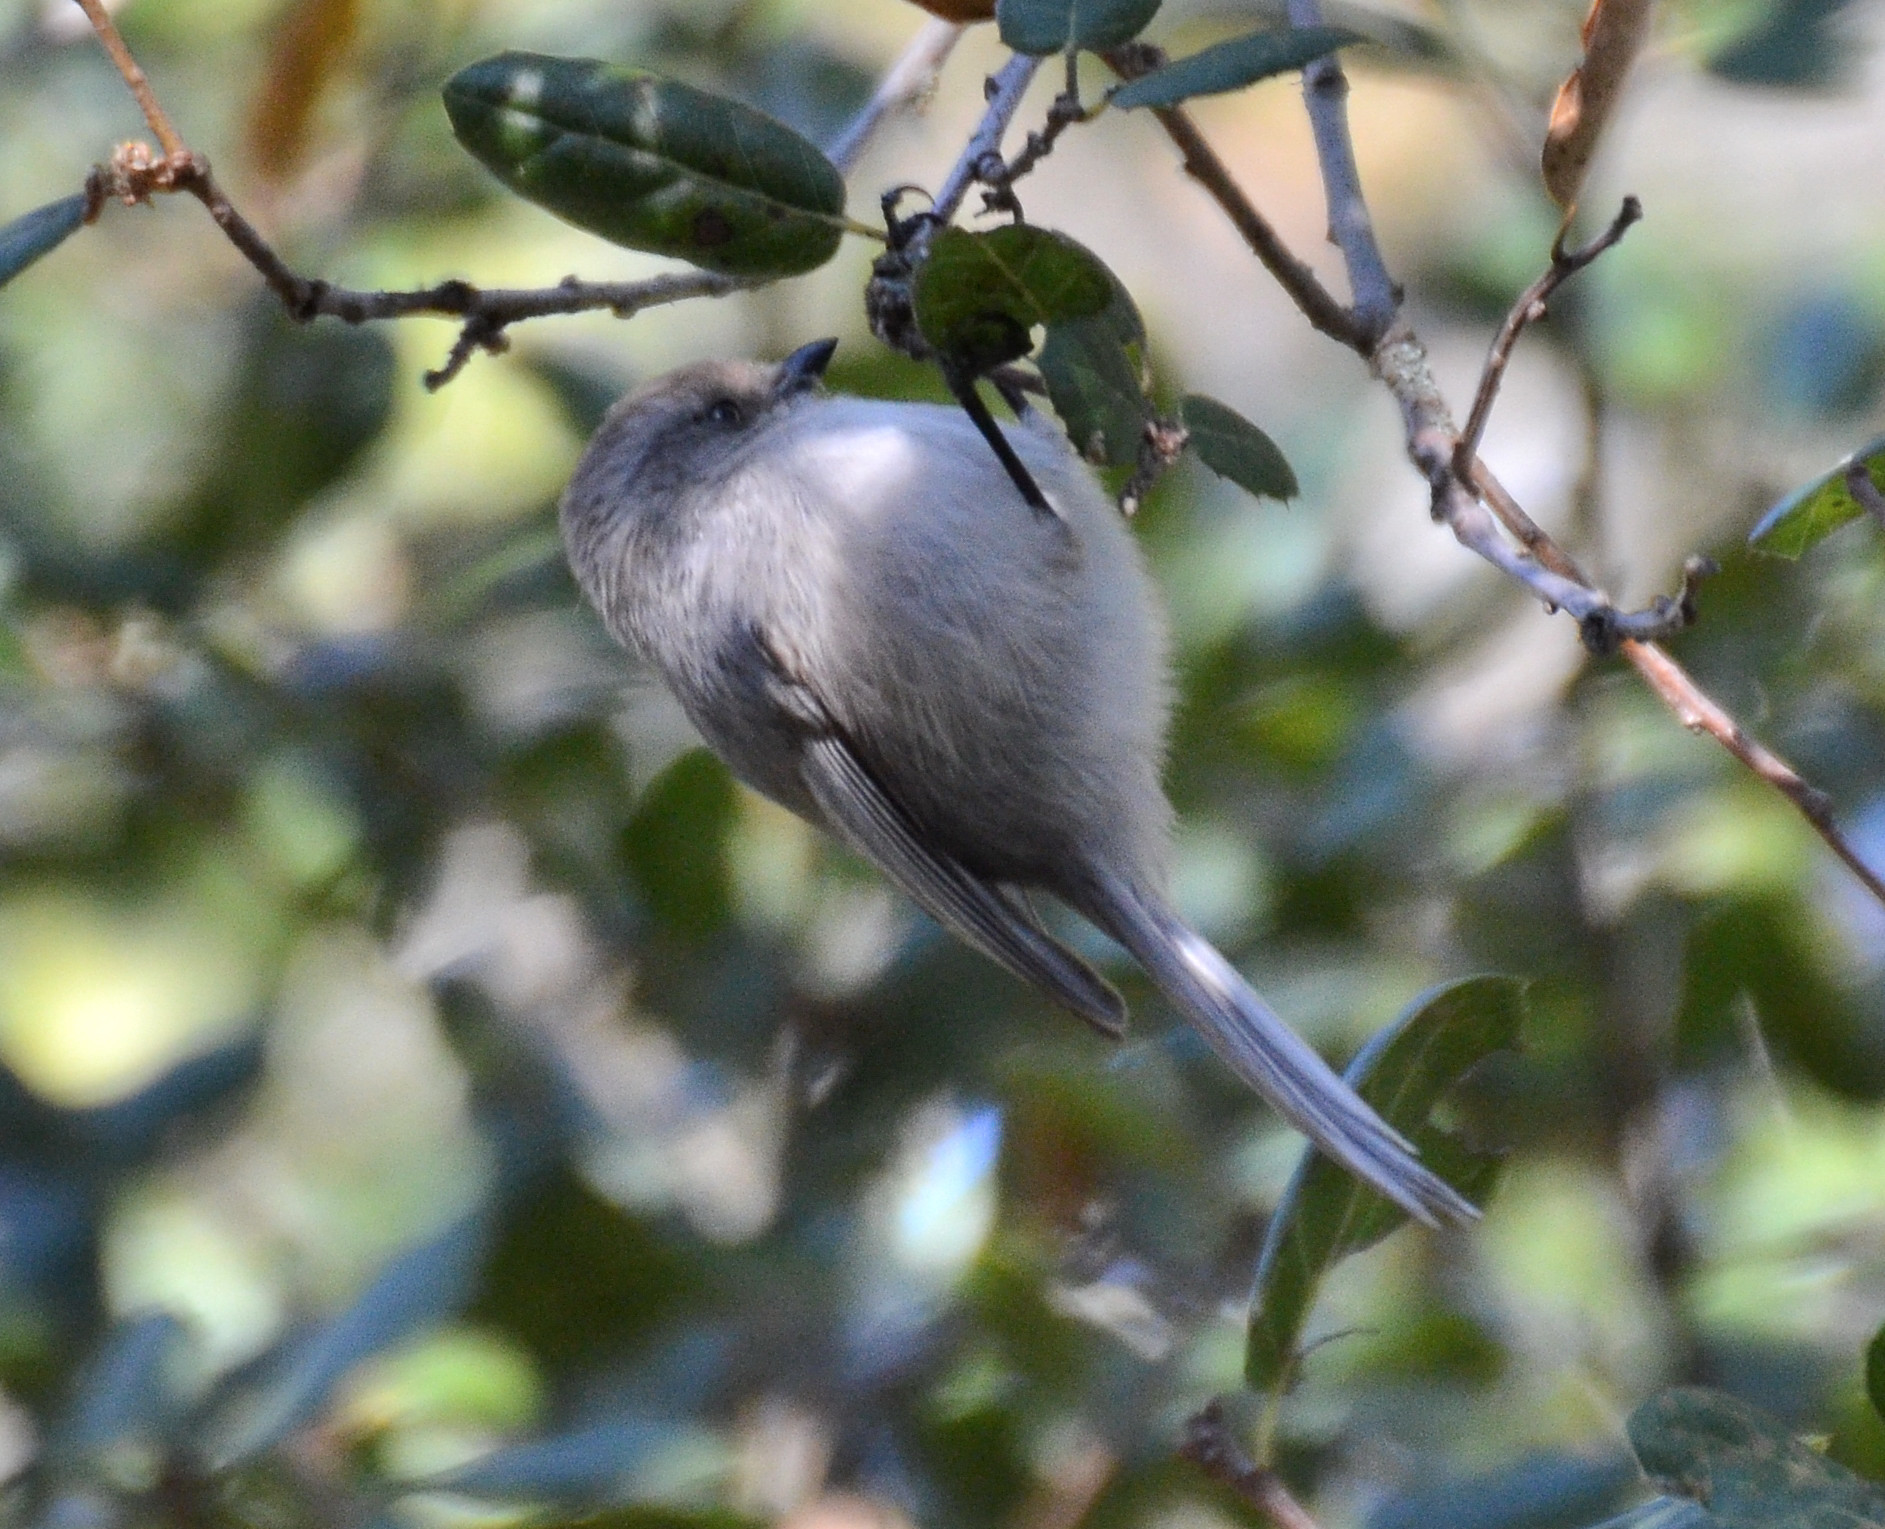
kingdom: Animalia
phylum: Chordata
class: Aves
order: Passeriformes
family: Aegithalidae
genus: Psaltriparus
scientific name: Psaltriparus minimus
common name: American bushtit
